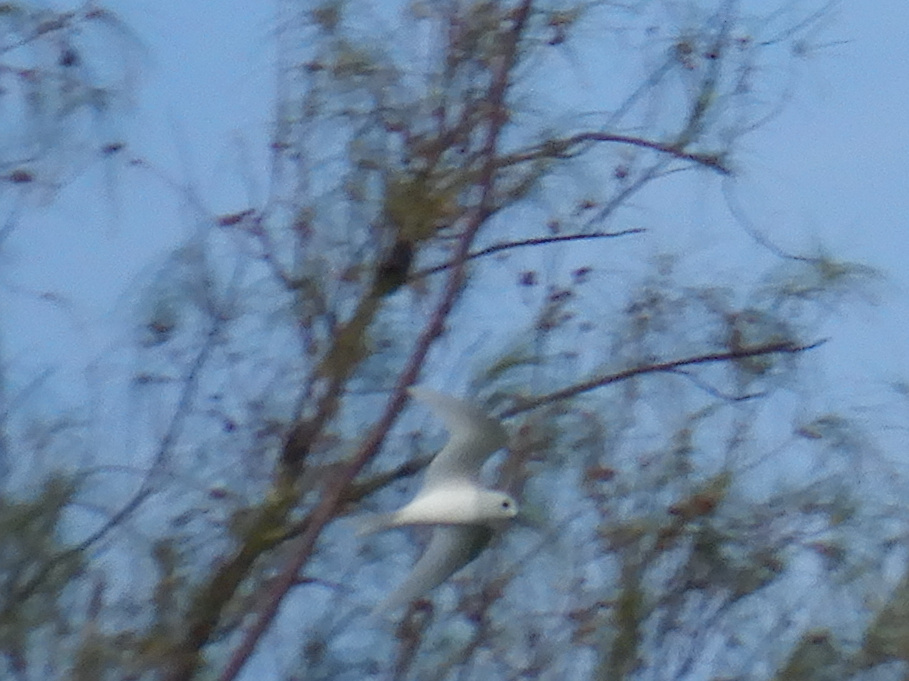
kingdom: Animalia
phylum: Chordata
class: Aves
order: Charadriiformes
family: Laridae
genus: Gygis
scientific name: Gygis alba
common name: White tern
